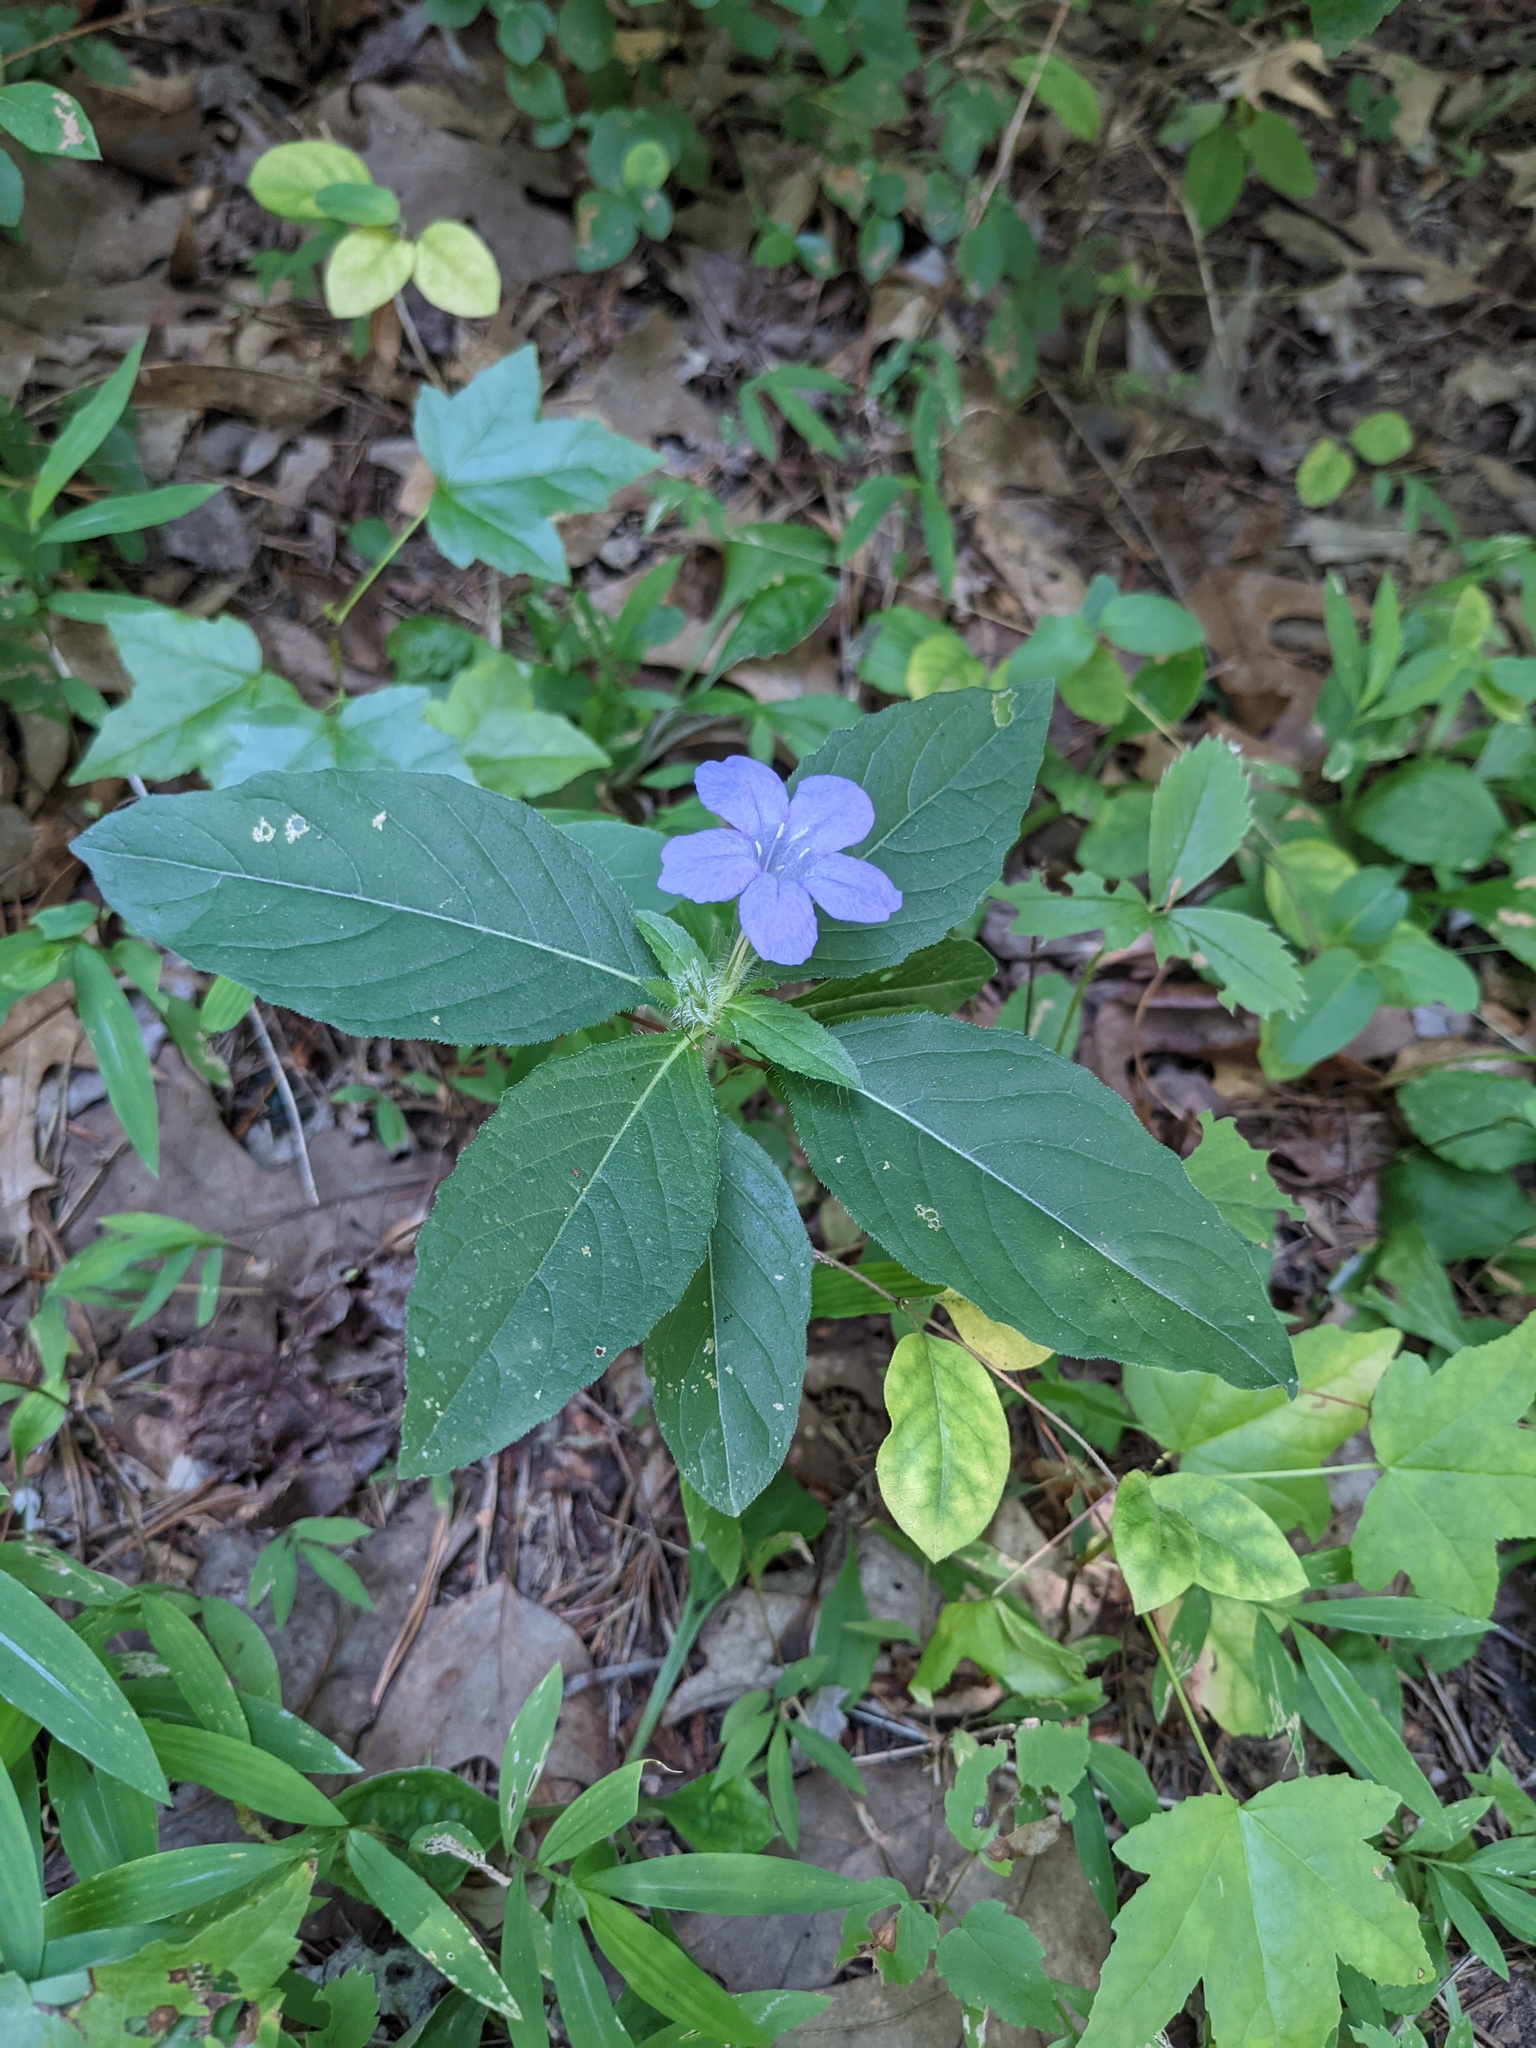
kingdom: Plantae
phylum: Tracheophyta
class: Magnoliopsida
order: Lamiales
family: Acanthaceae
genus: Ruellia
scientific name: Ruellia caroliniensis
